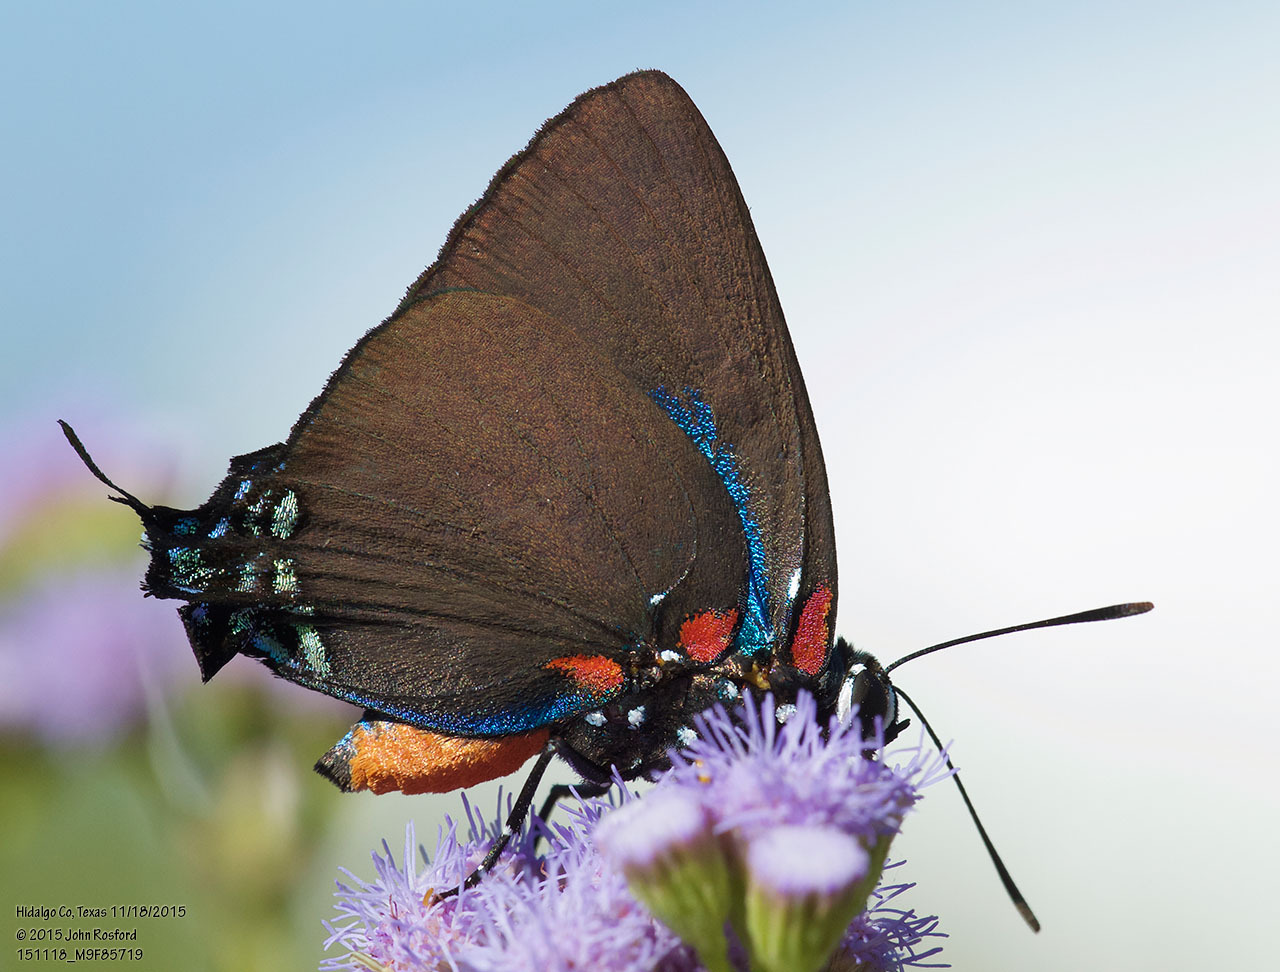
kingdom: Animalia
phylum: Arthropoda
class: Insecta
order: Lepidoptera
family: Lycaenidae
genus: Atlides
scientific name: Atlides halesus
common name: Great purple hairstreak
